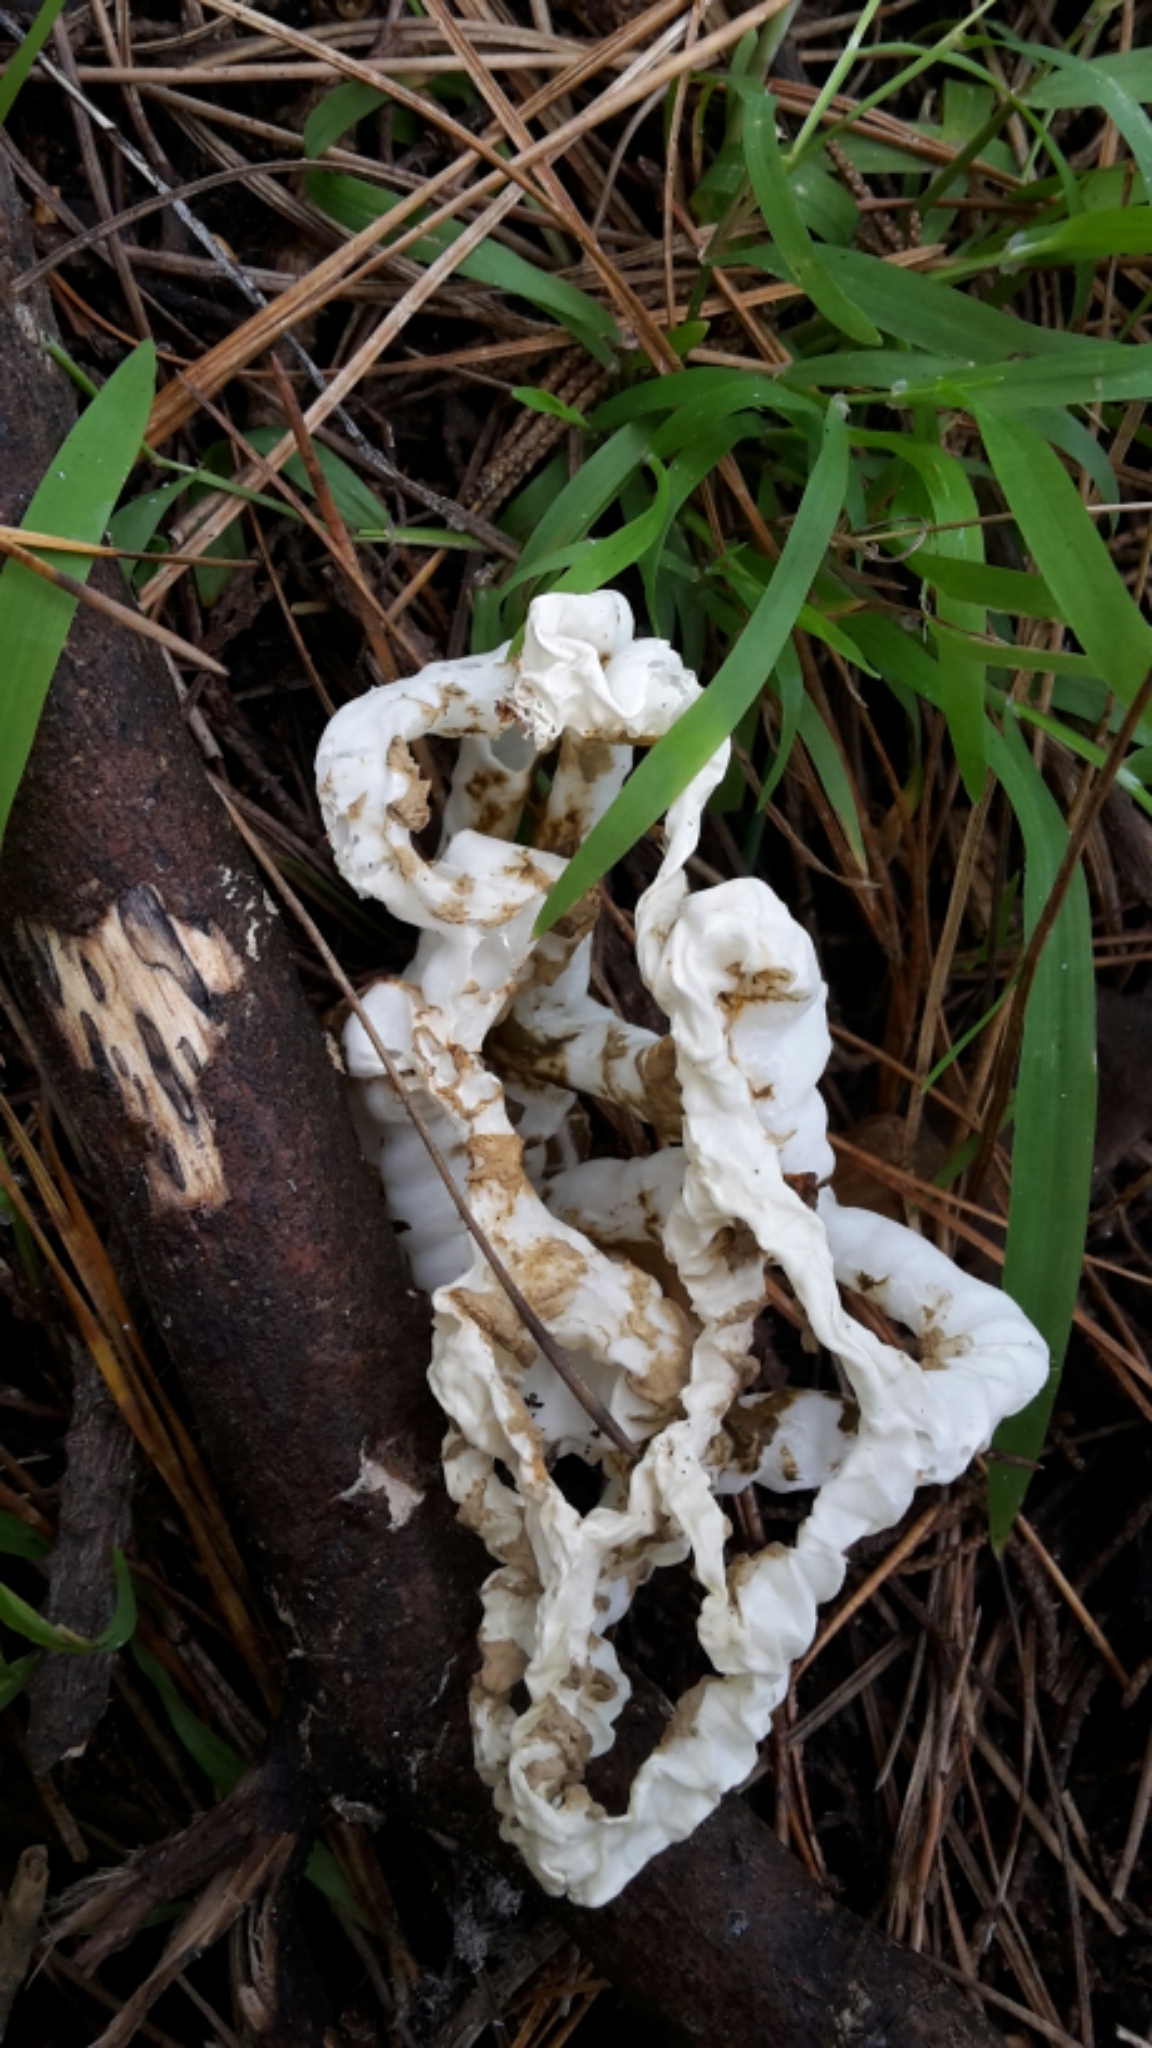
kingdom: Fungi
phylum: Basidiomycota
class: Agaricomycetes
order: Phallales
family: Phallaceae
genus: Ileodictyon
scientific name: Ileodictyon cibarium
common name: Basket fungus
